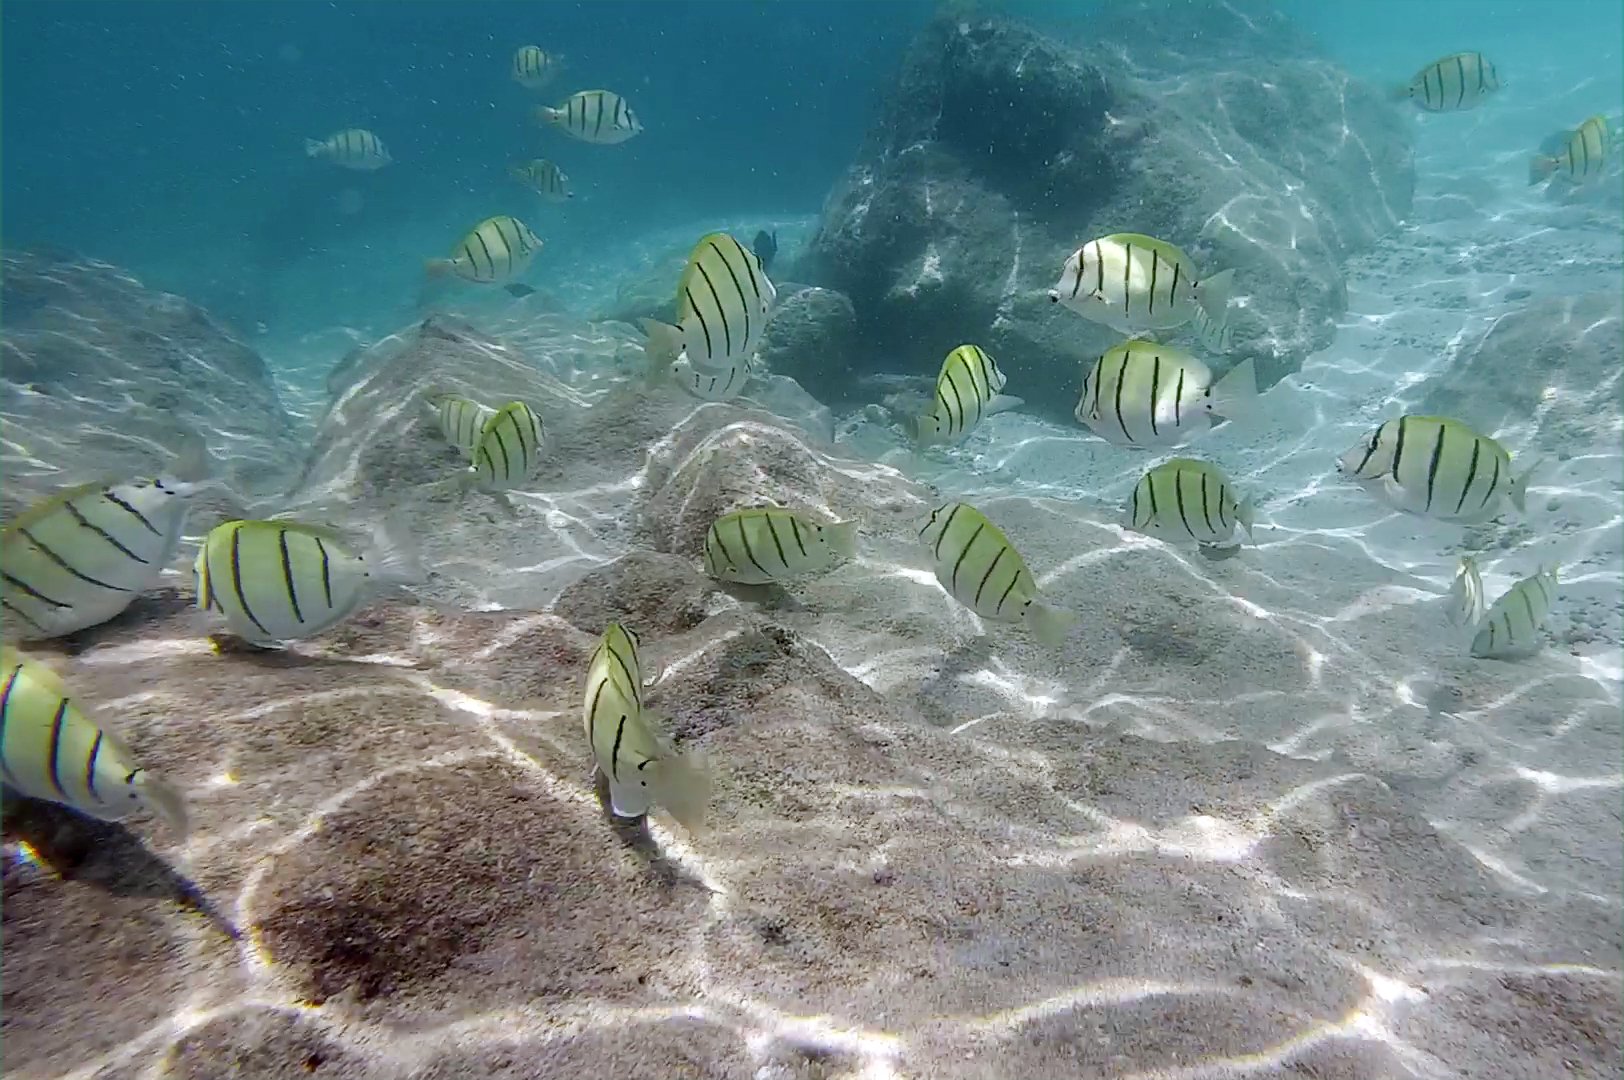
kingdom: Animalia
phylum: Chordata
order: Perciformes
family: Acanthuridae
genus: Acanthurus
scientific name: Acanthurus triostegus
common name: Convict surgeonfish
